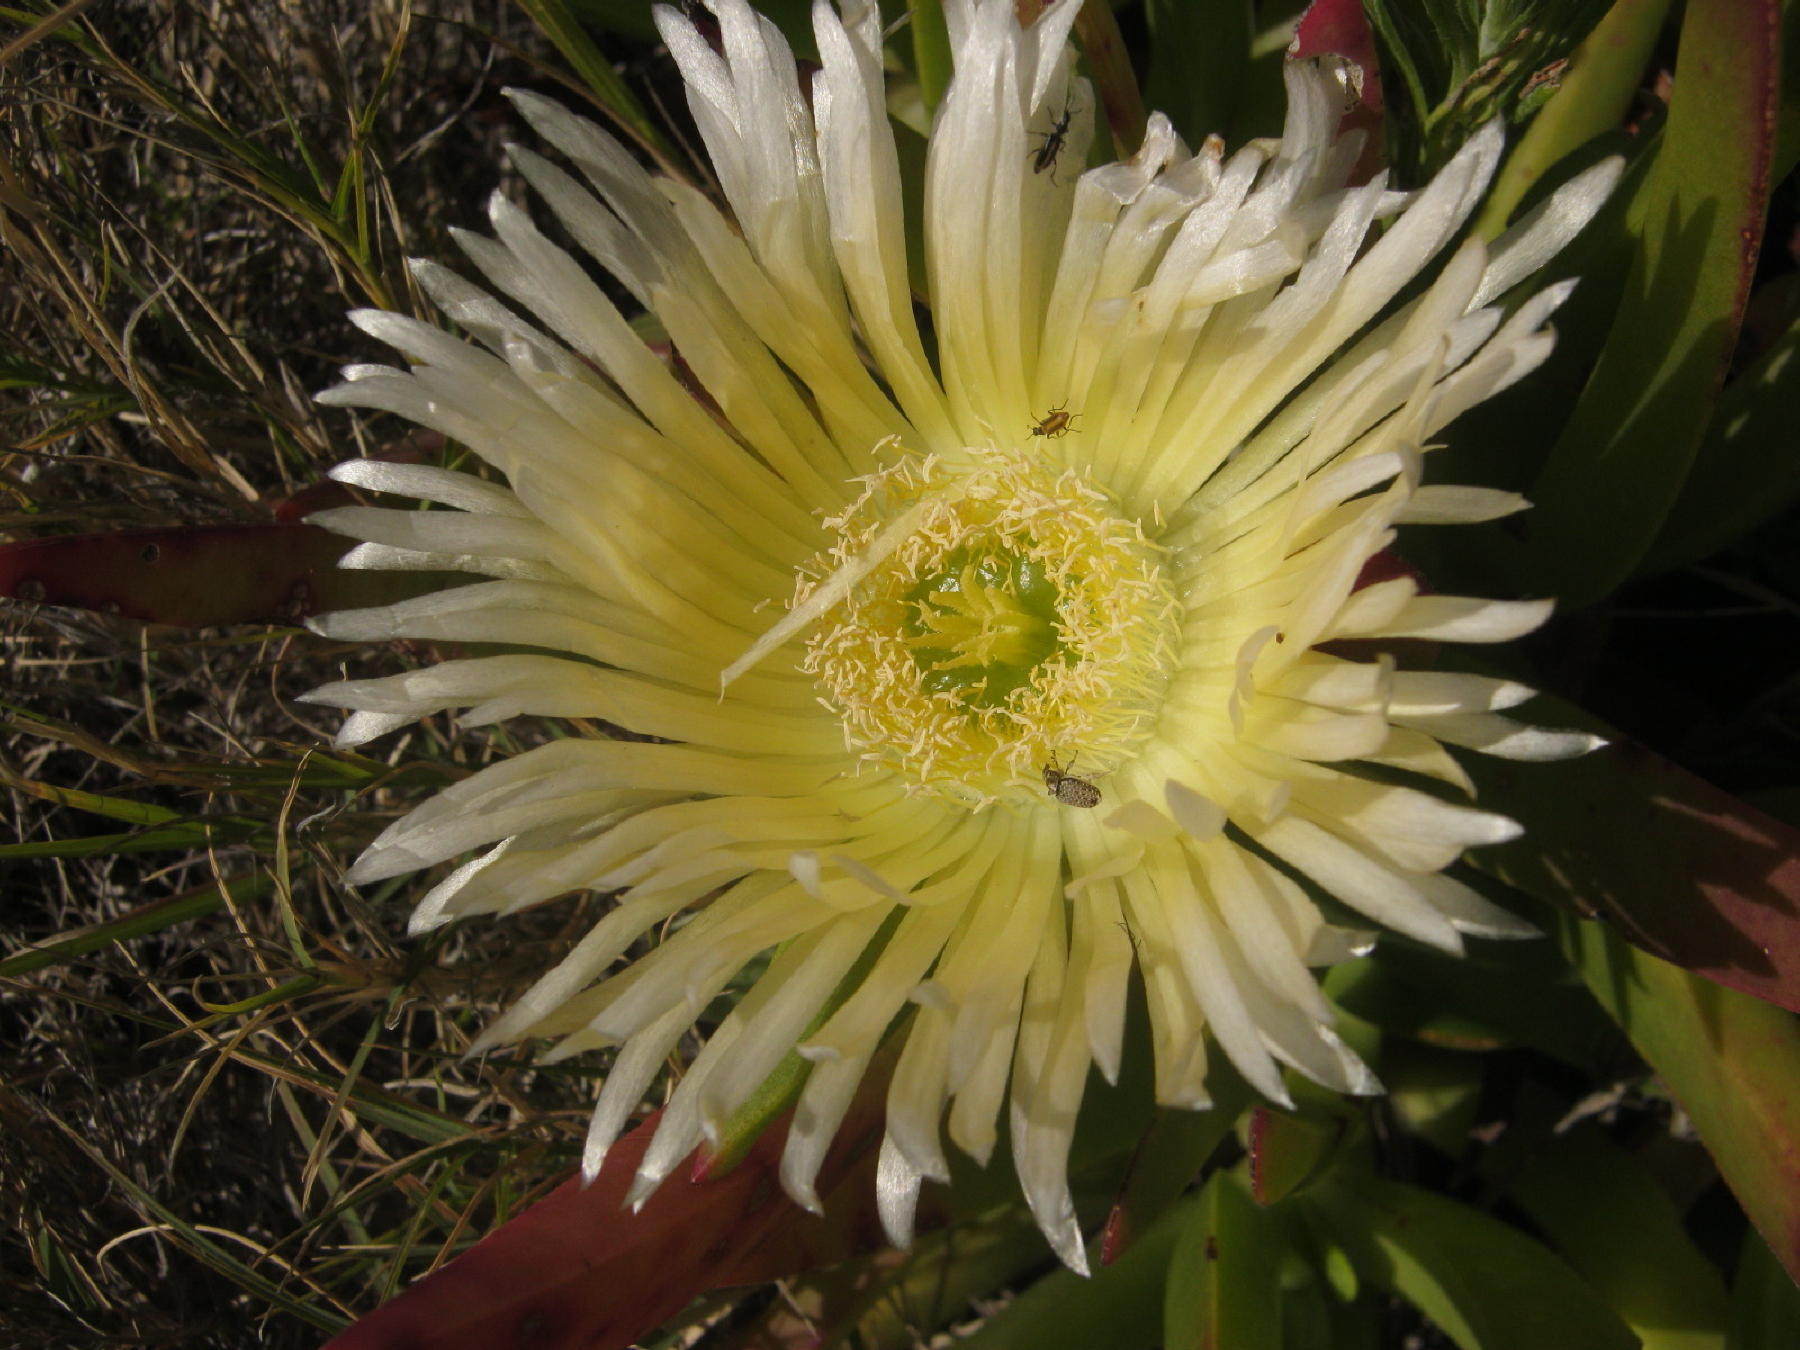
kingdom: Plantae
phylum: Tracheophyta
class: Magnoliopsida
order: Caryophyllales
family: Aizoaceae
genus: Carpobrotus
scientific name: Carpobrotus edulis
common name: Hottentot-fig
